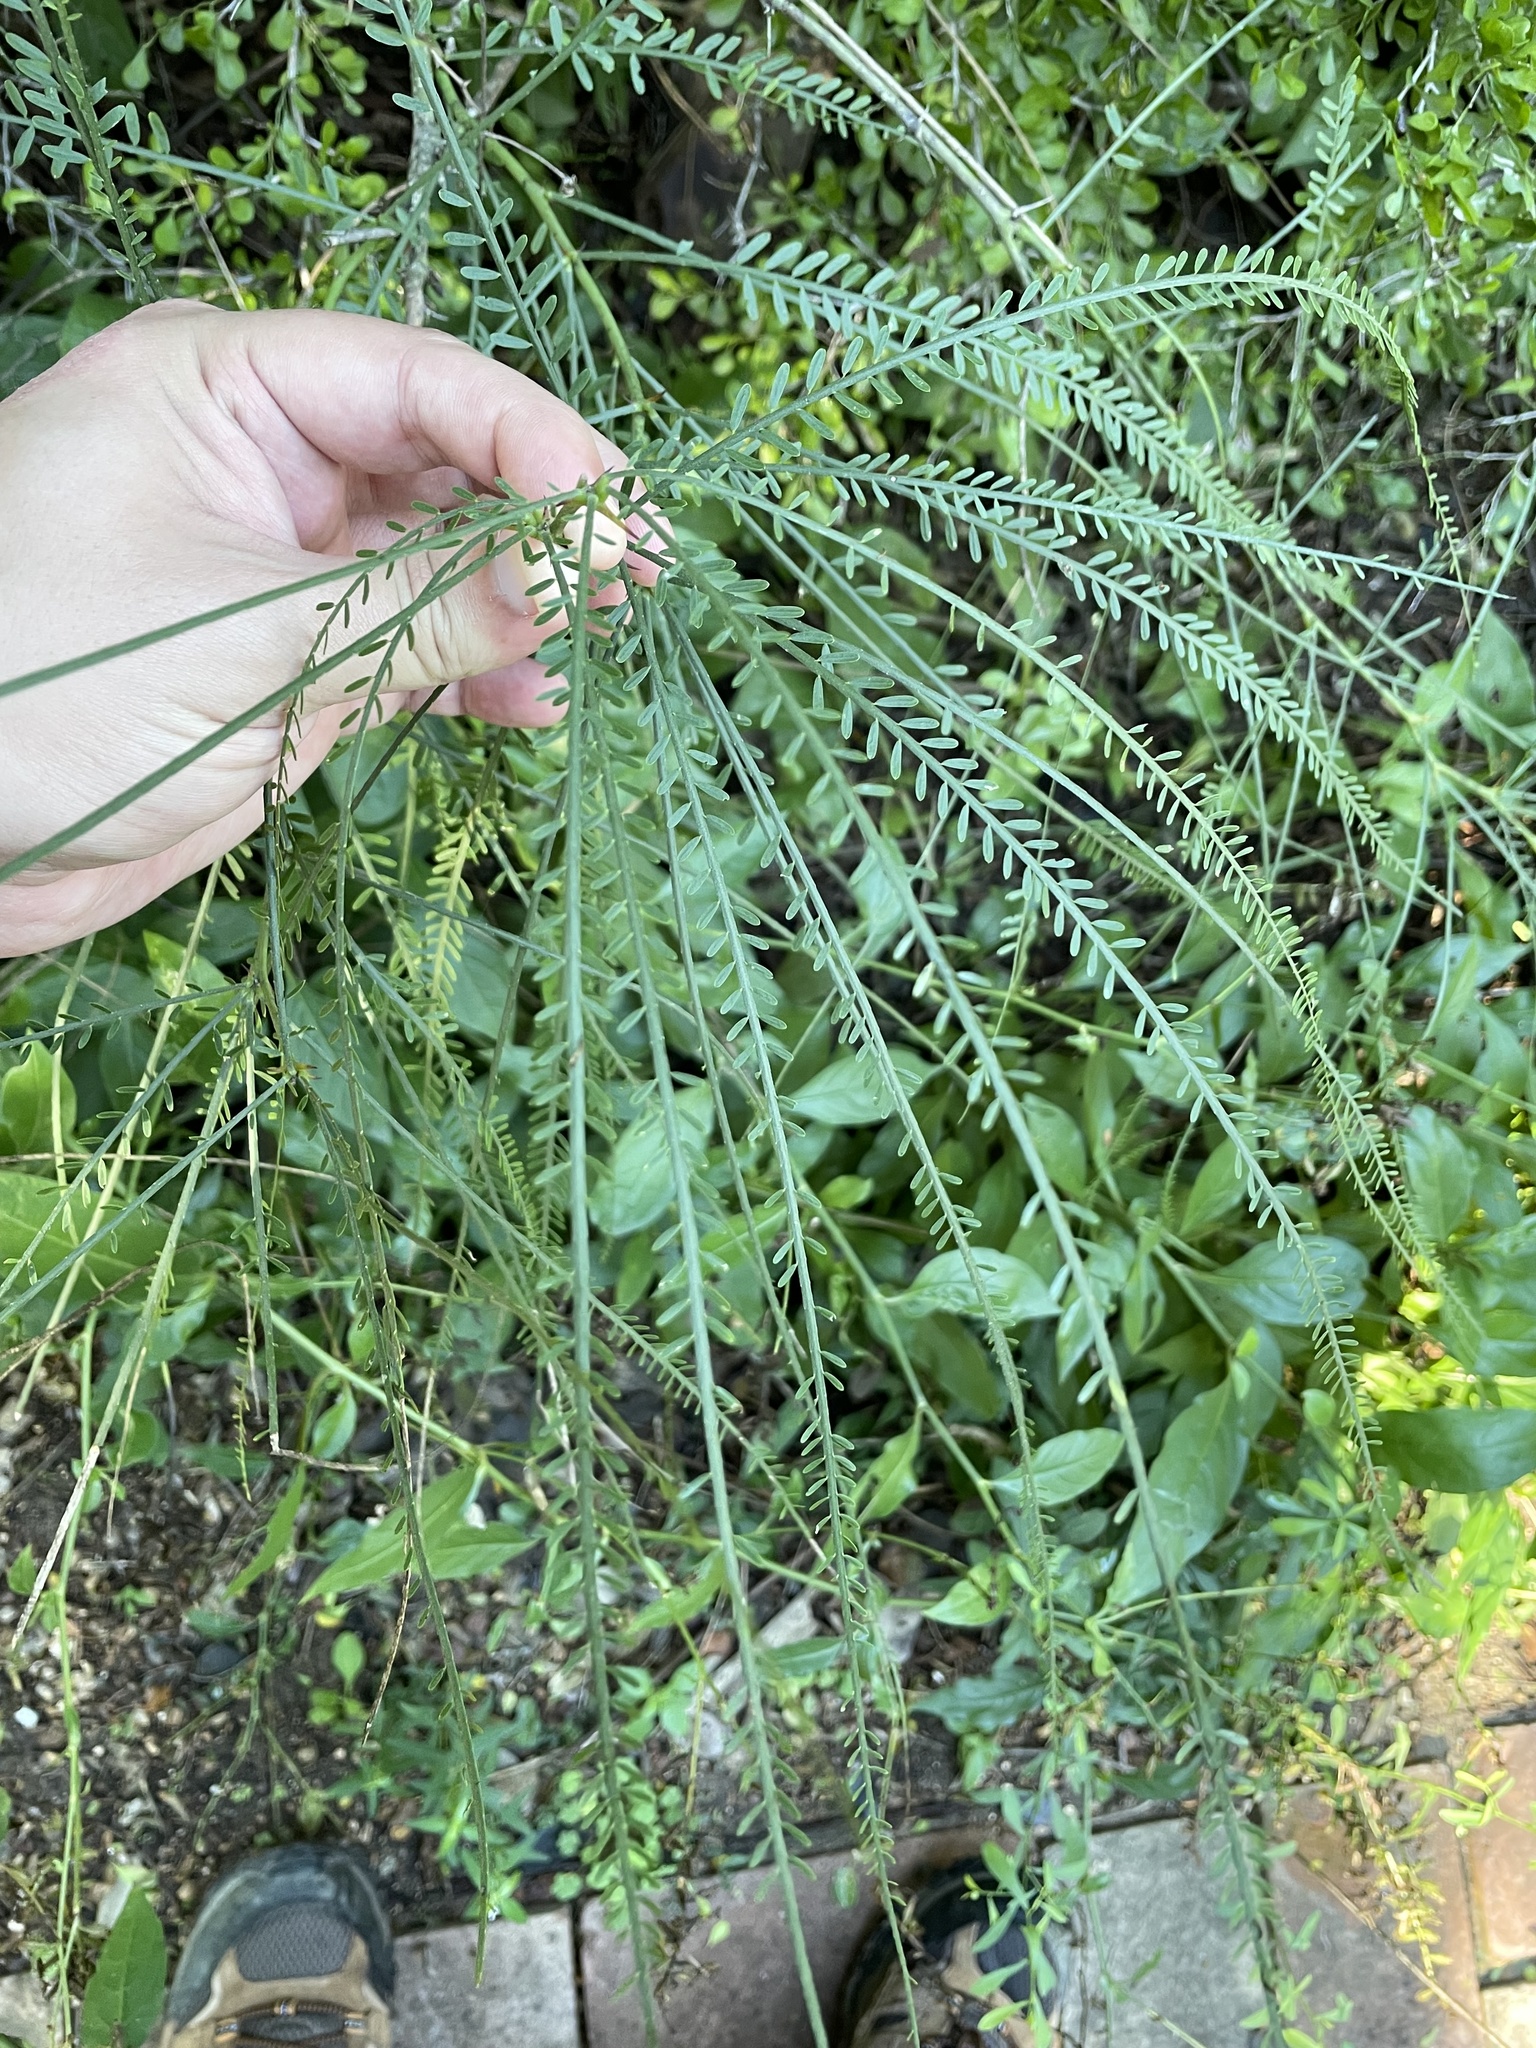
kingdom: Plantae
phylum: Tracheophyta
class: Magnoliopsida
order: Fabales
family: Fabaceae
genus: Parkinsonia
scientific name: Parkinsonia aculeata
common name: Jerusalem thorn
